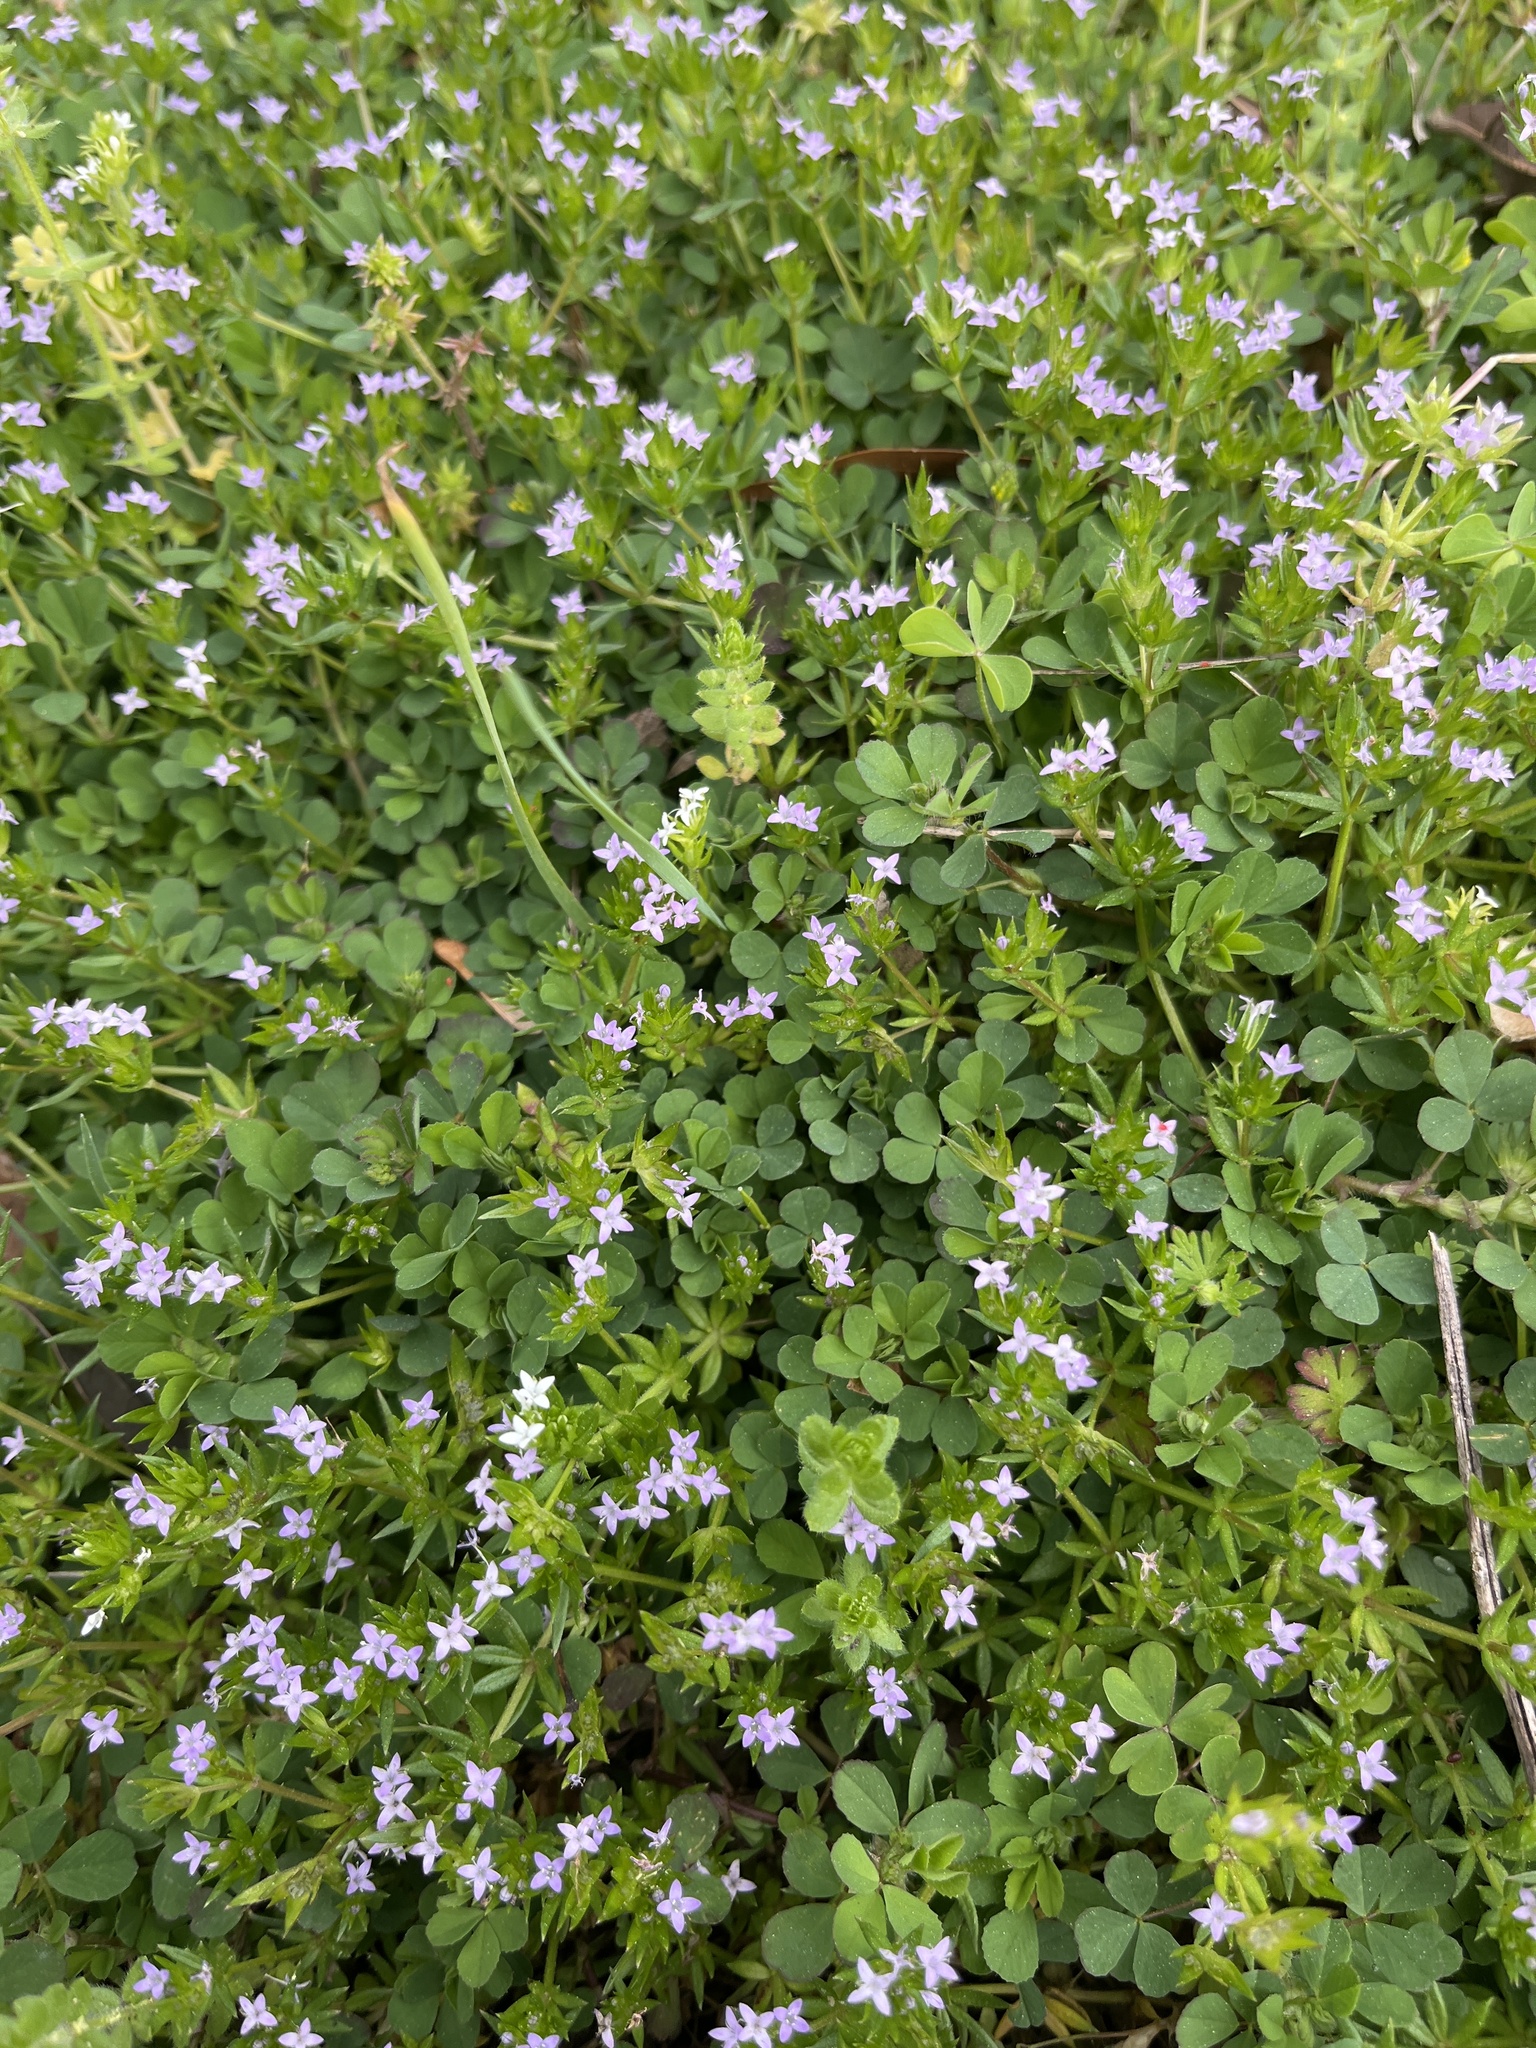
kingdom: Plantae
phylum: Tracheophyta
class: Magnoliopsida
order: Gentianales
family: Rubiaceae
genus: Sherardia
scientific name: Sherardia arvensis
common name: Field madder
